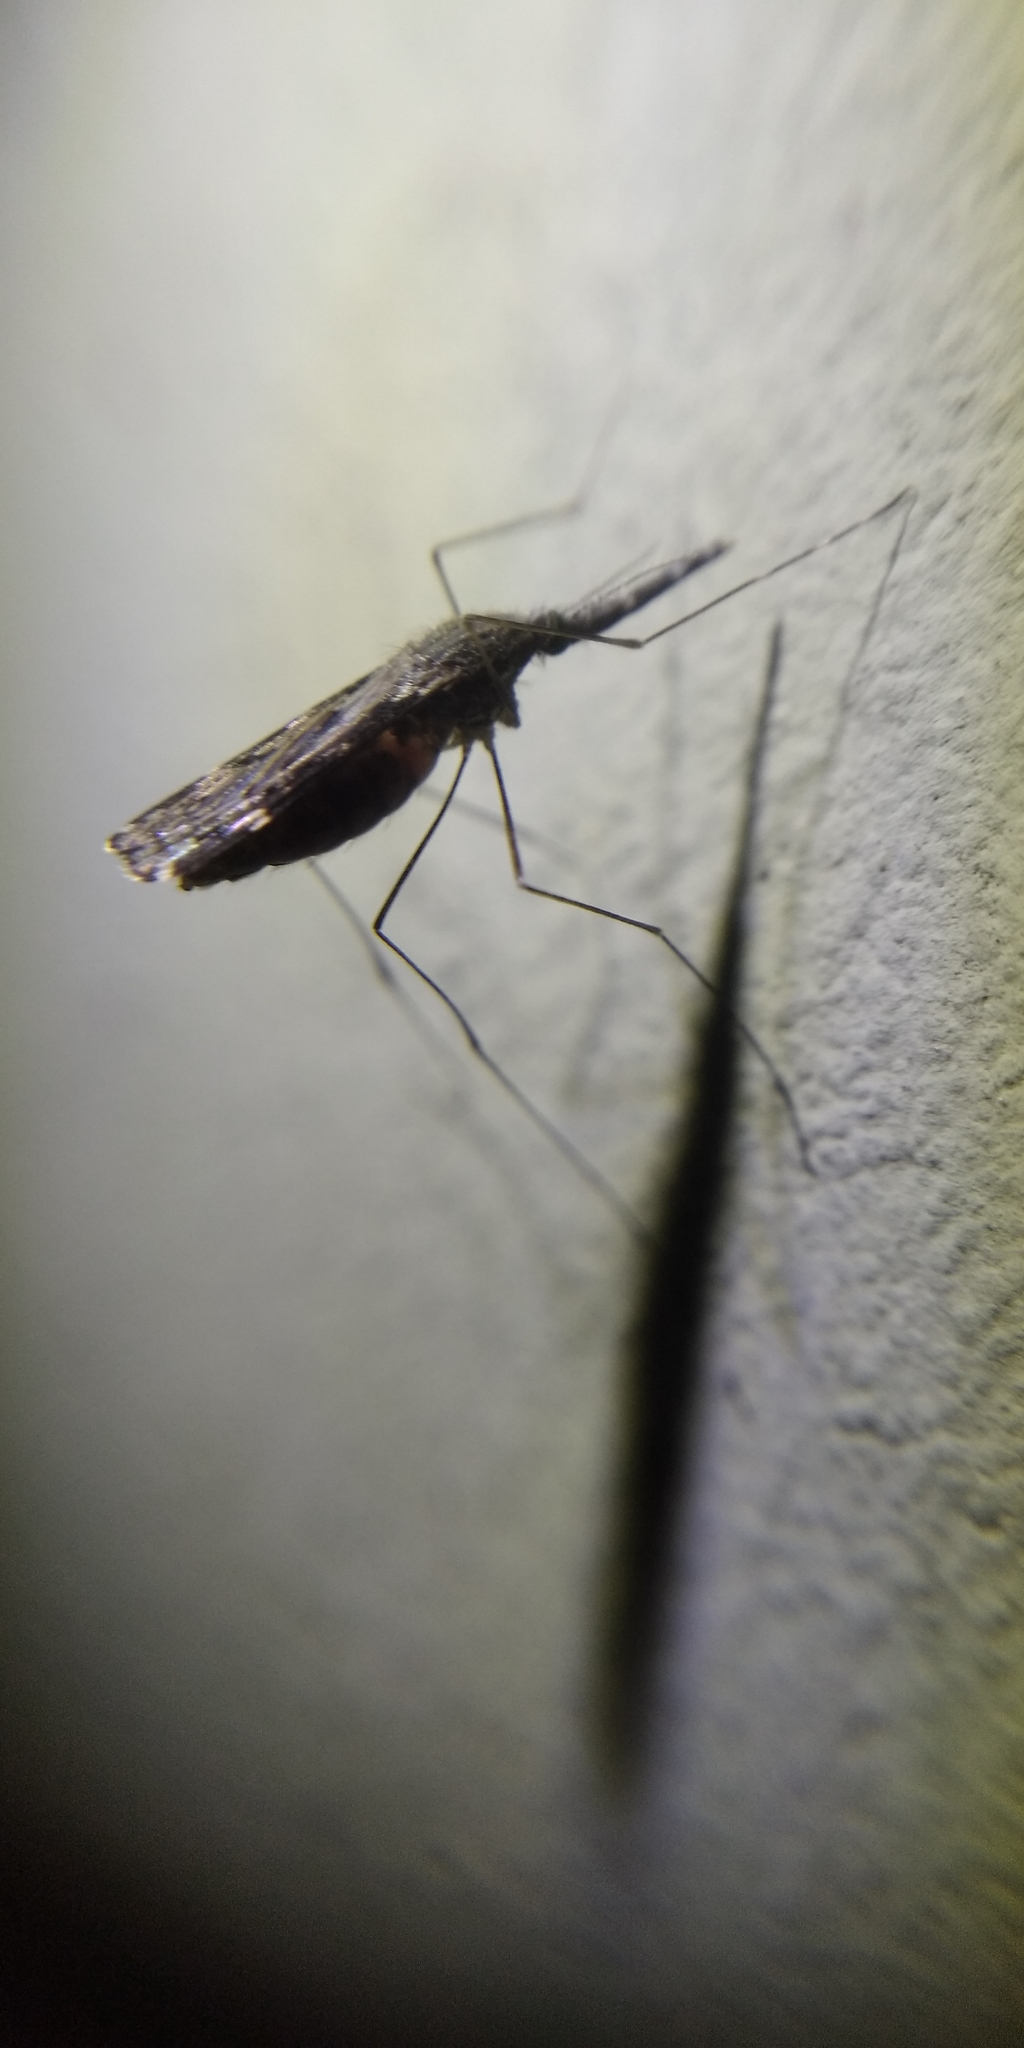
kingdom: Animalia
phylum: Arthropoda
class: Insecta
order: Diptera
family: Culicidae
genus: Anopheles
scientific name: Anopheles hyrcanus
